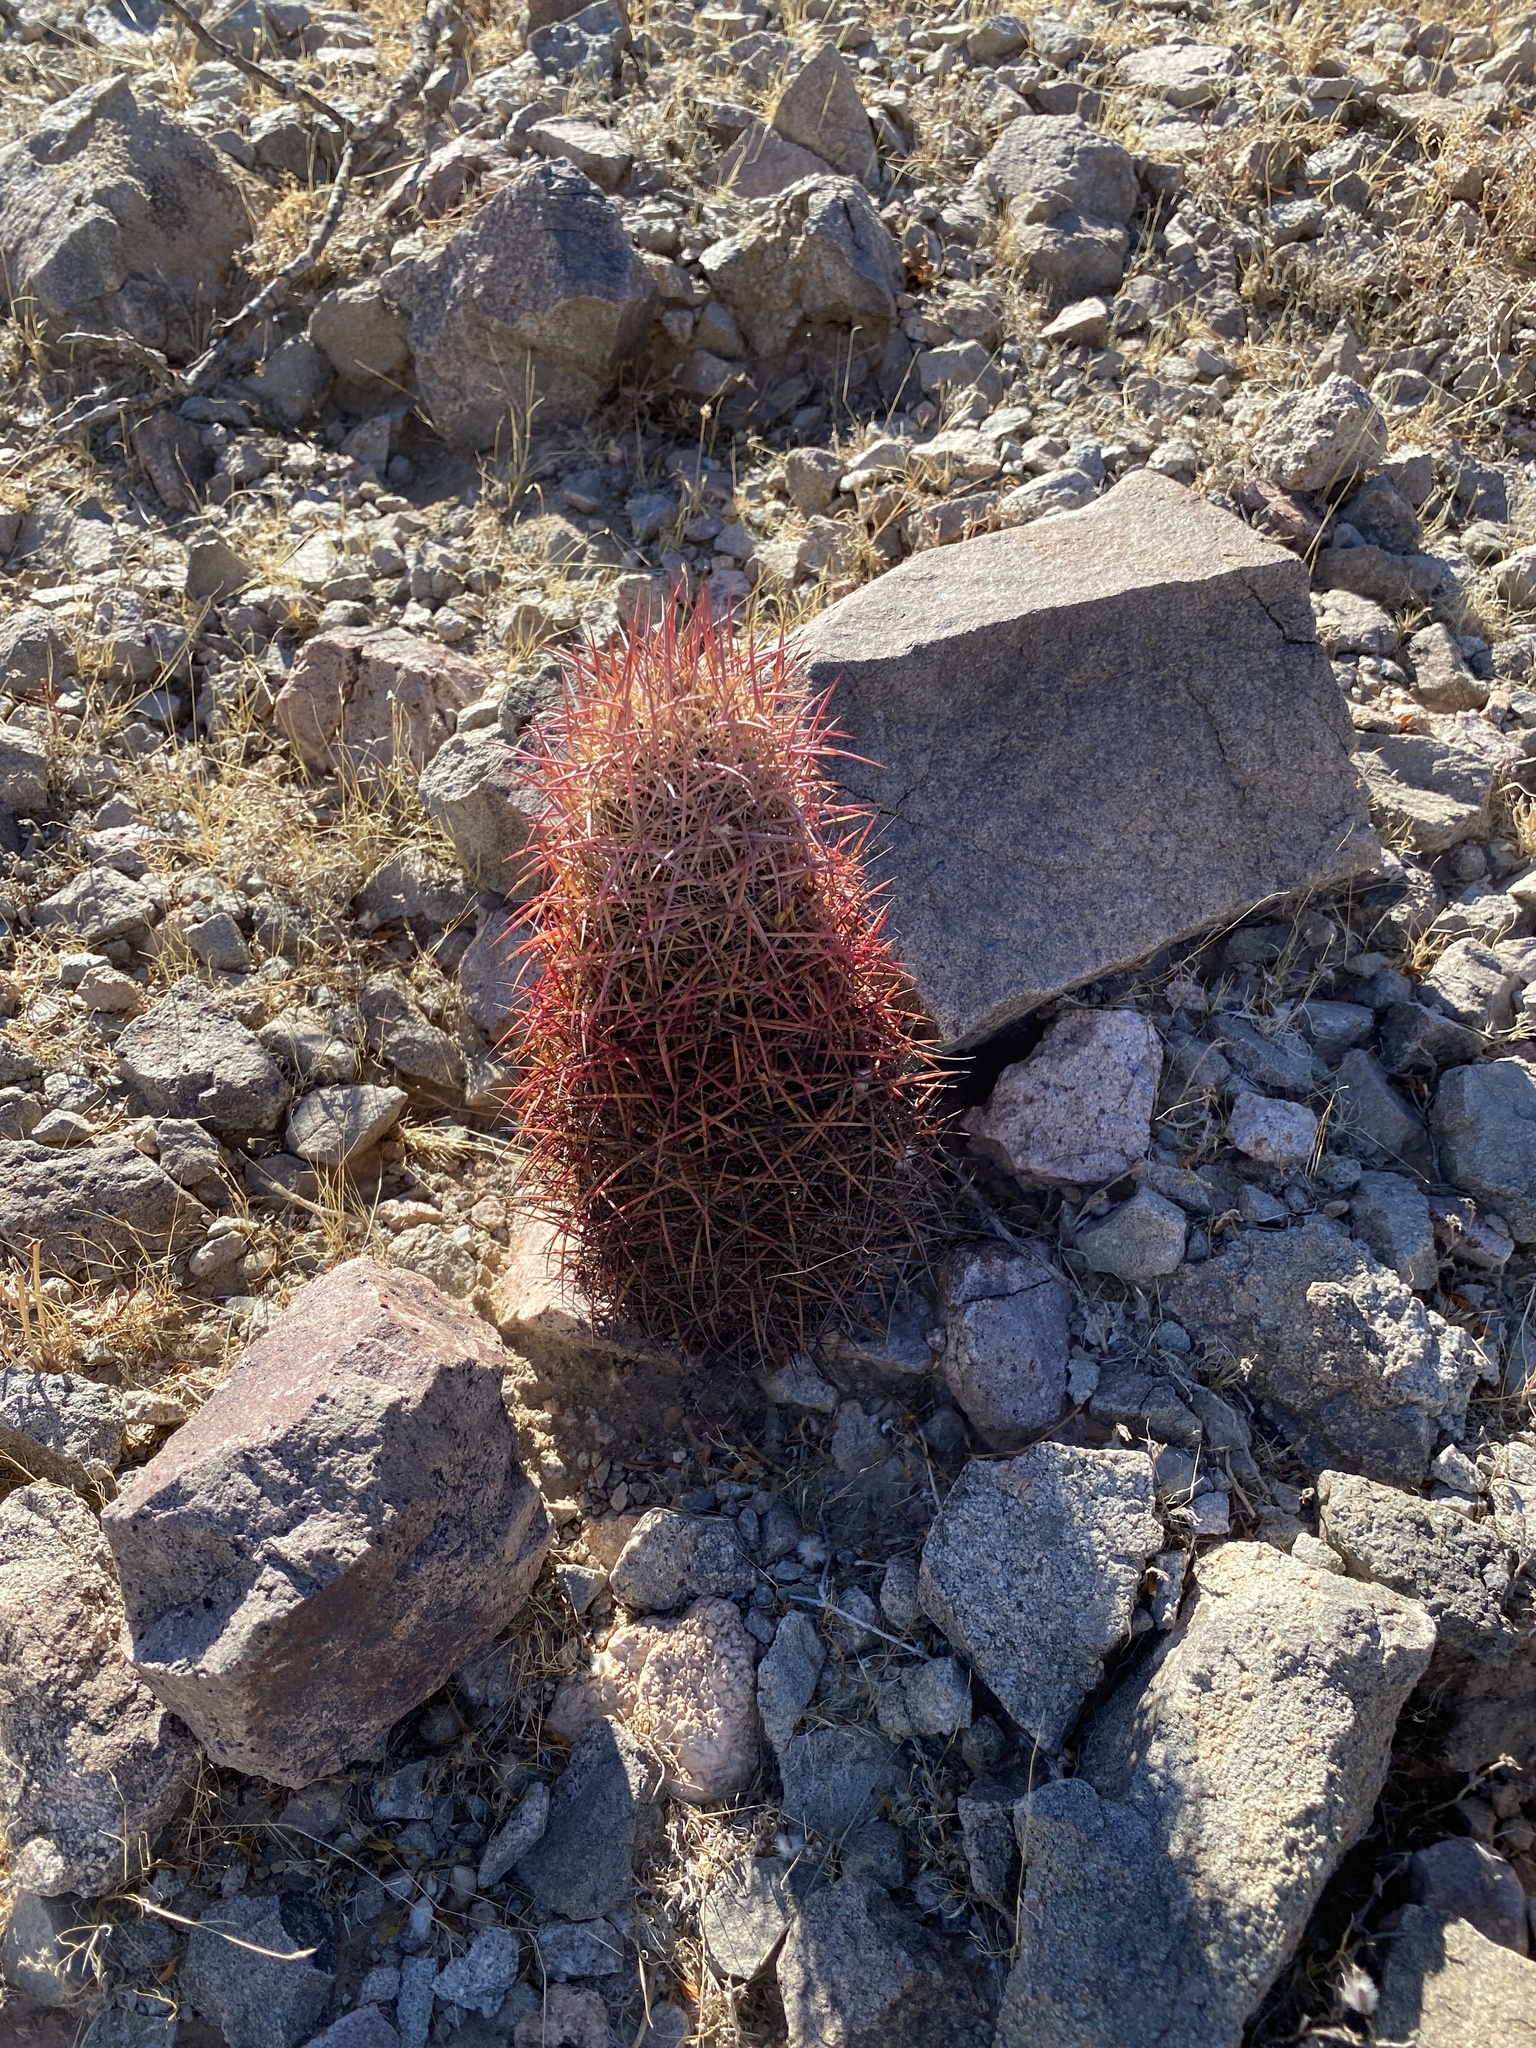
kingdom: Plantae
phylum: Tracheophyta
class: Magnoliopsida
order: Caryophyllales
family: Cactaceae
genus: Sclerocactus
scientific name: Sclerocactus johnsonii
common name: Eight-spine fishhook cactus
